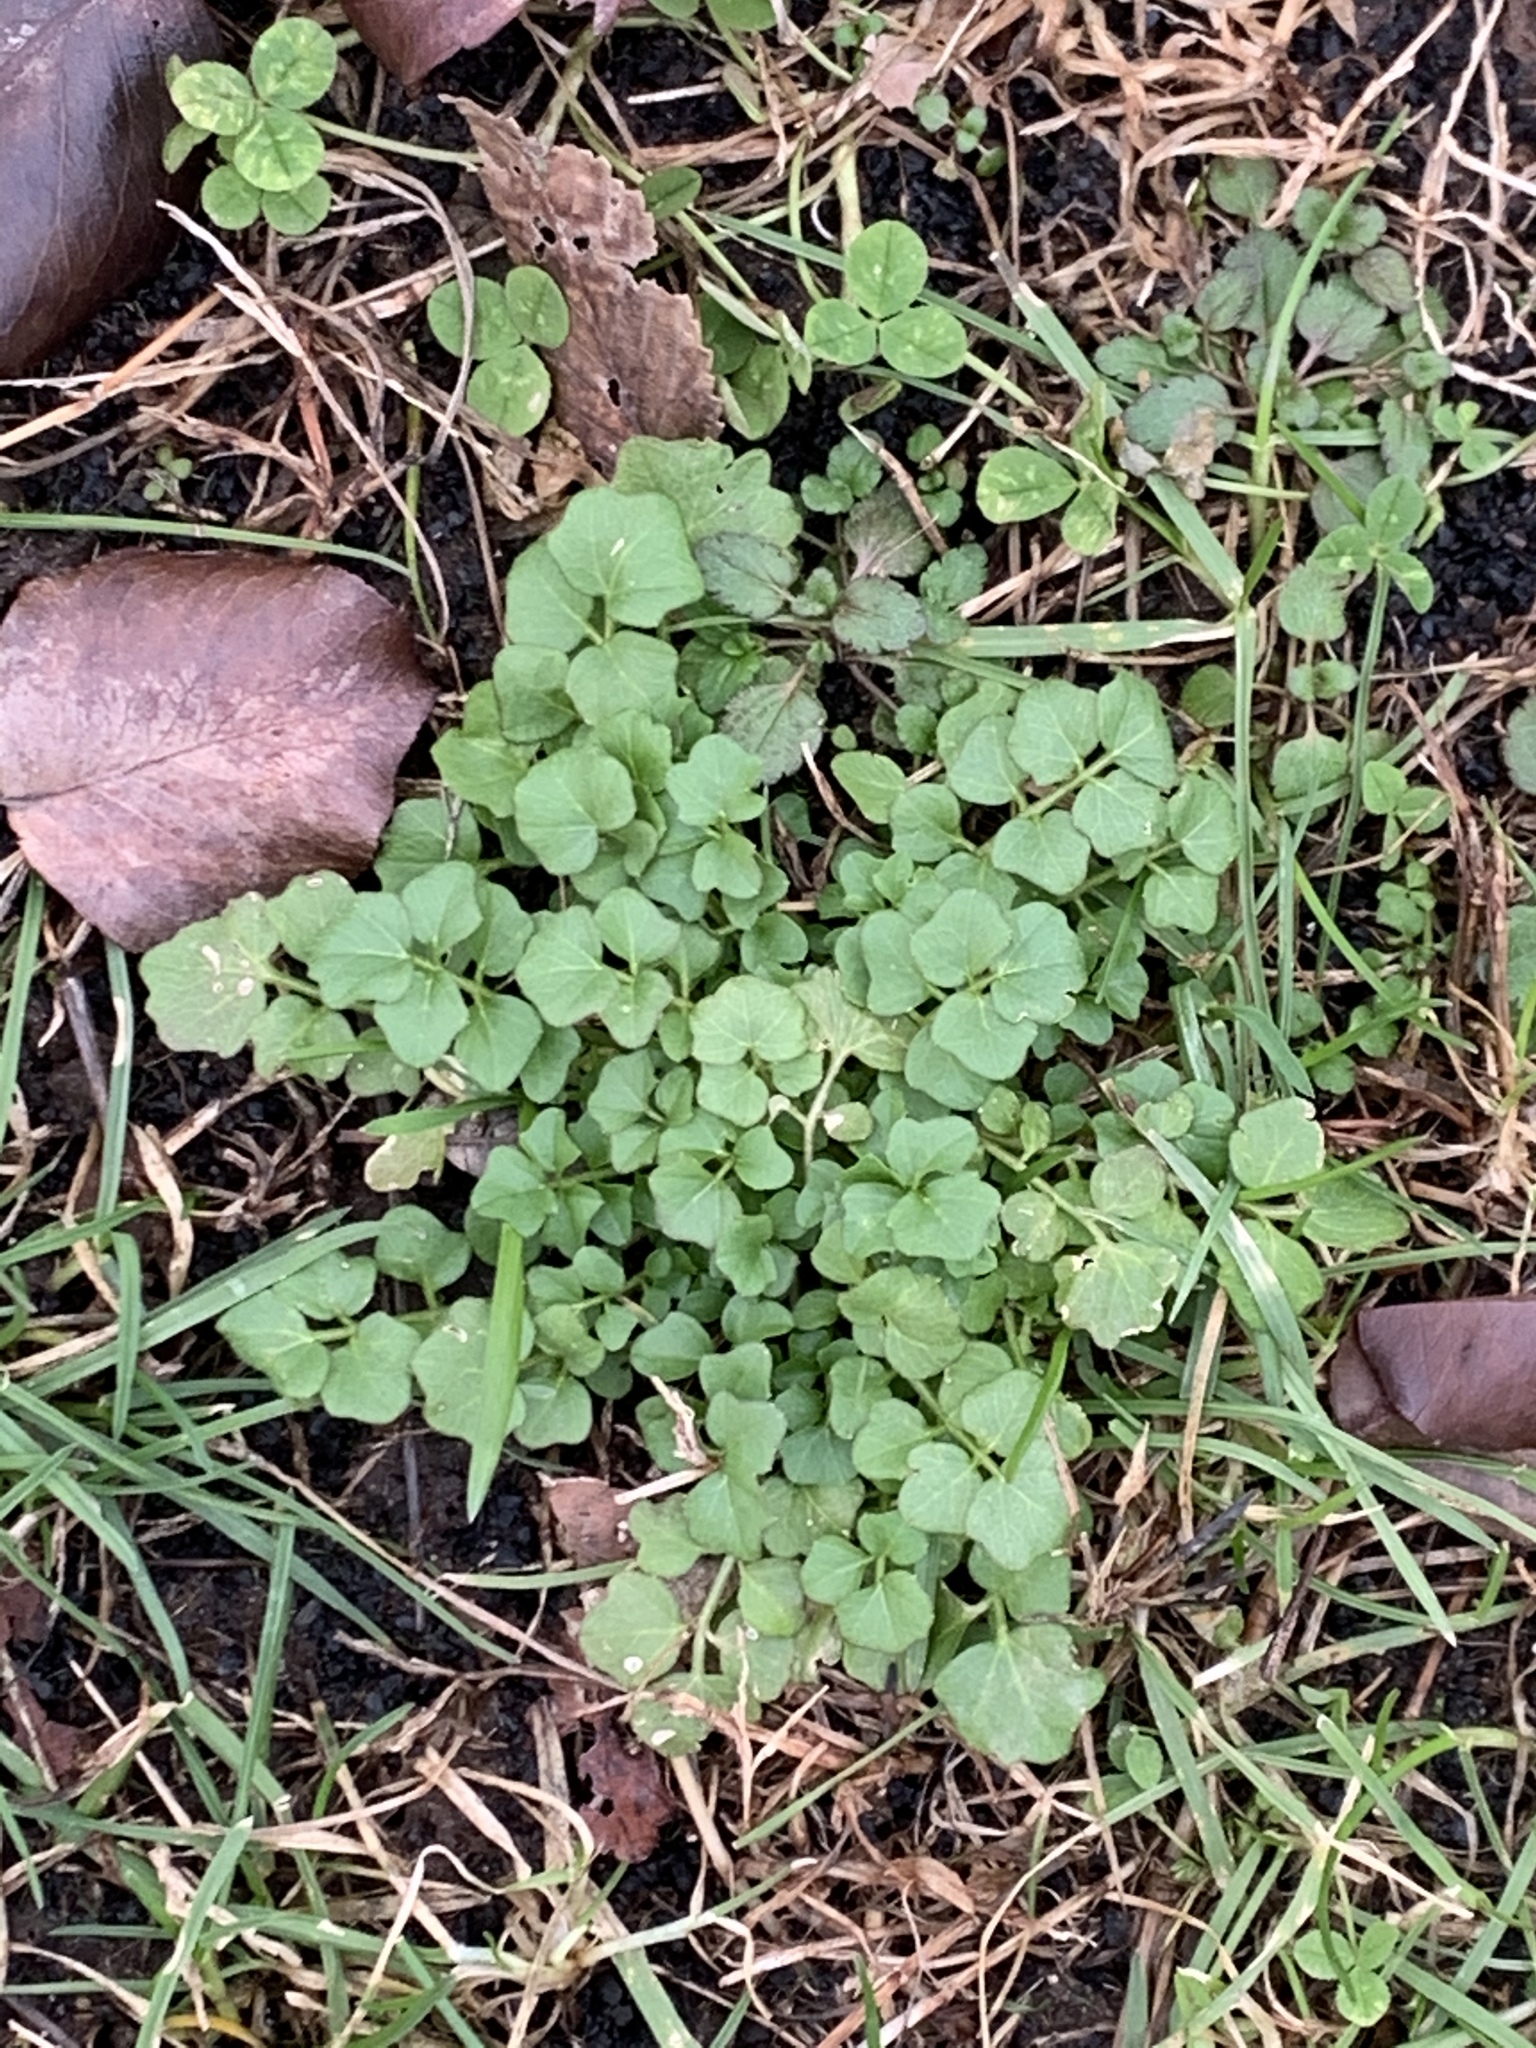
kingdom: Plantae
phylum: Tracheophyta
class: Magnoliopsida
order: Brassicales
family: Brassicaceae
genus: Cardamine
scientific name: Cardamine hirsuta
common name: Hairy bittercress
